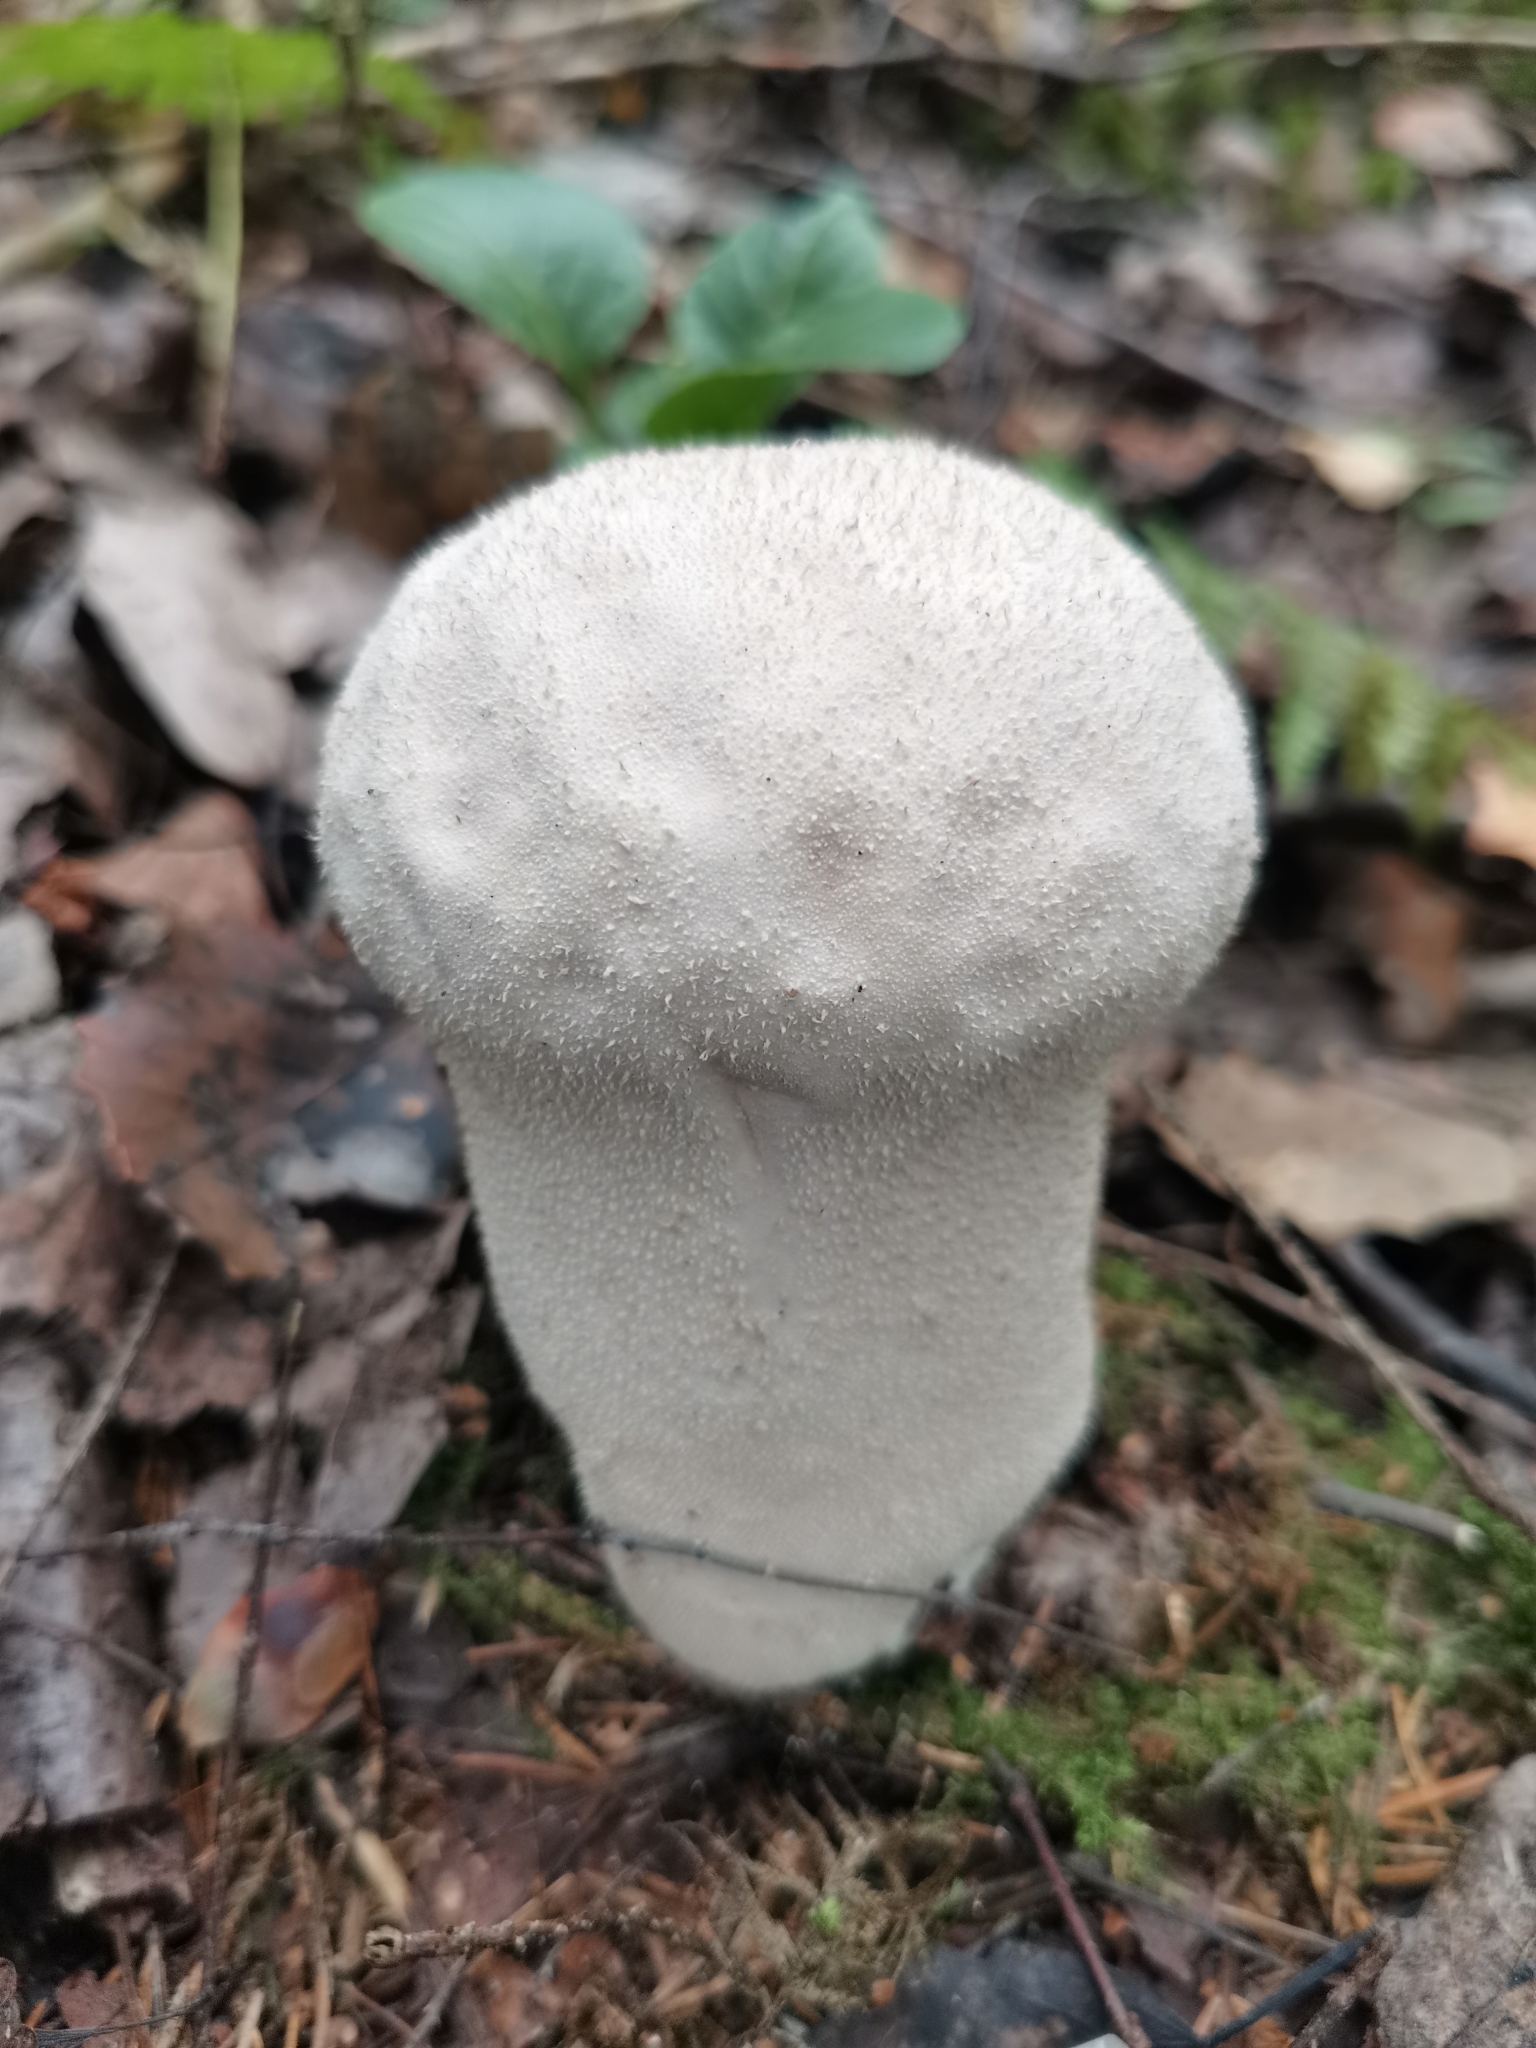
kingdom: Fungi
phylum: Basidiomycota
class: Agaricomycetes
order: Agaricales
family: Lycoperdaceae
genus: Lycoperdon
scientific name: Lycoperdon excipuliforme
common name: Pestle puffball
